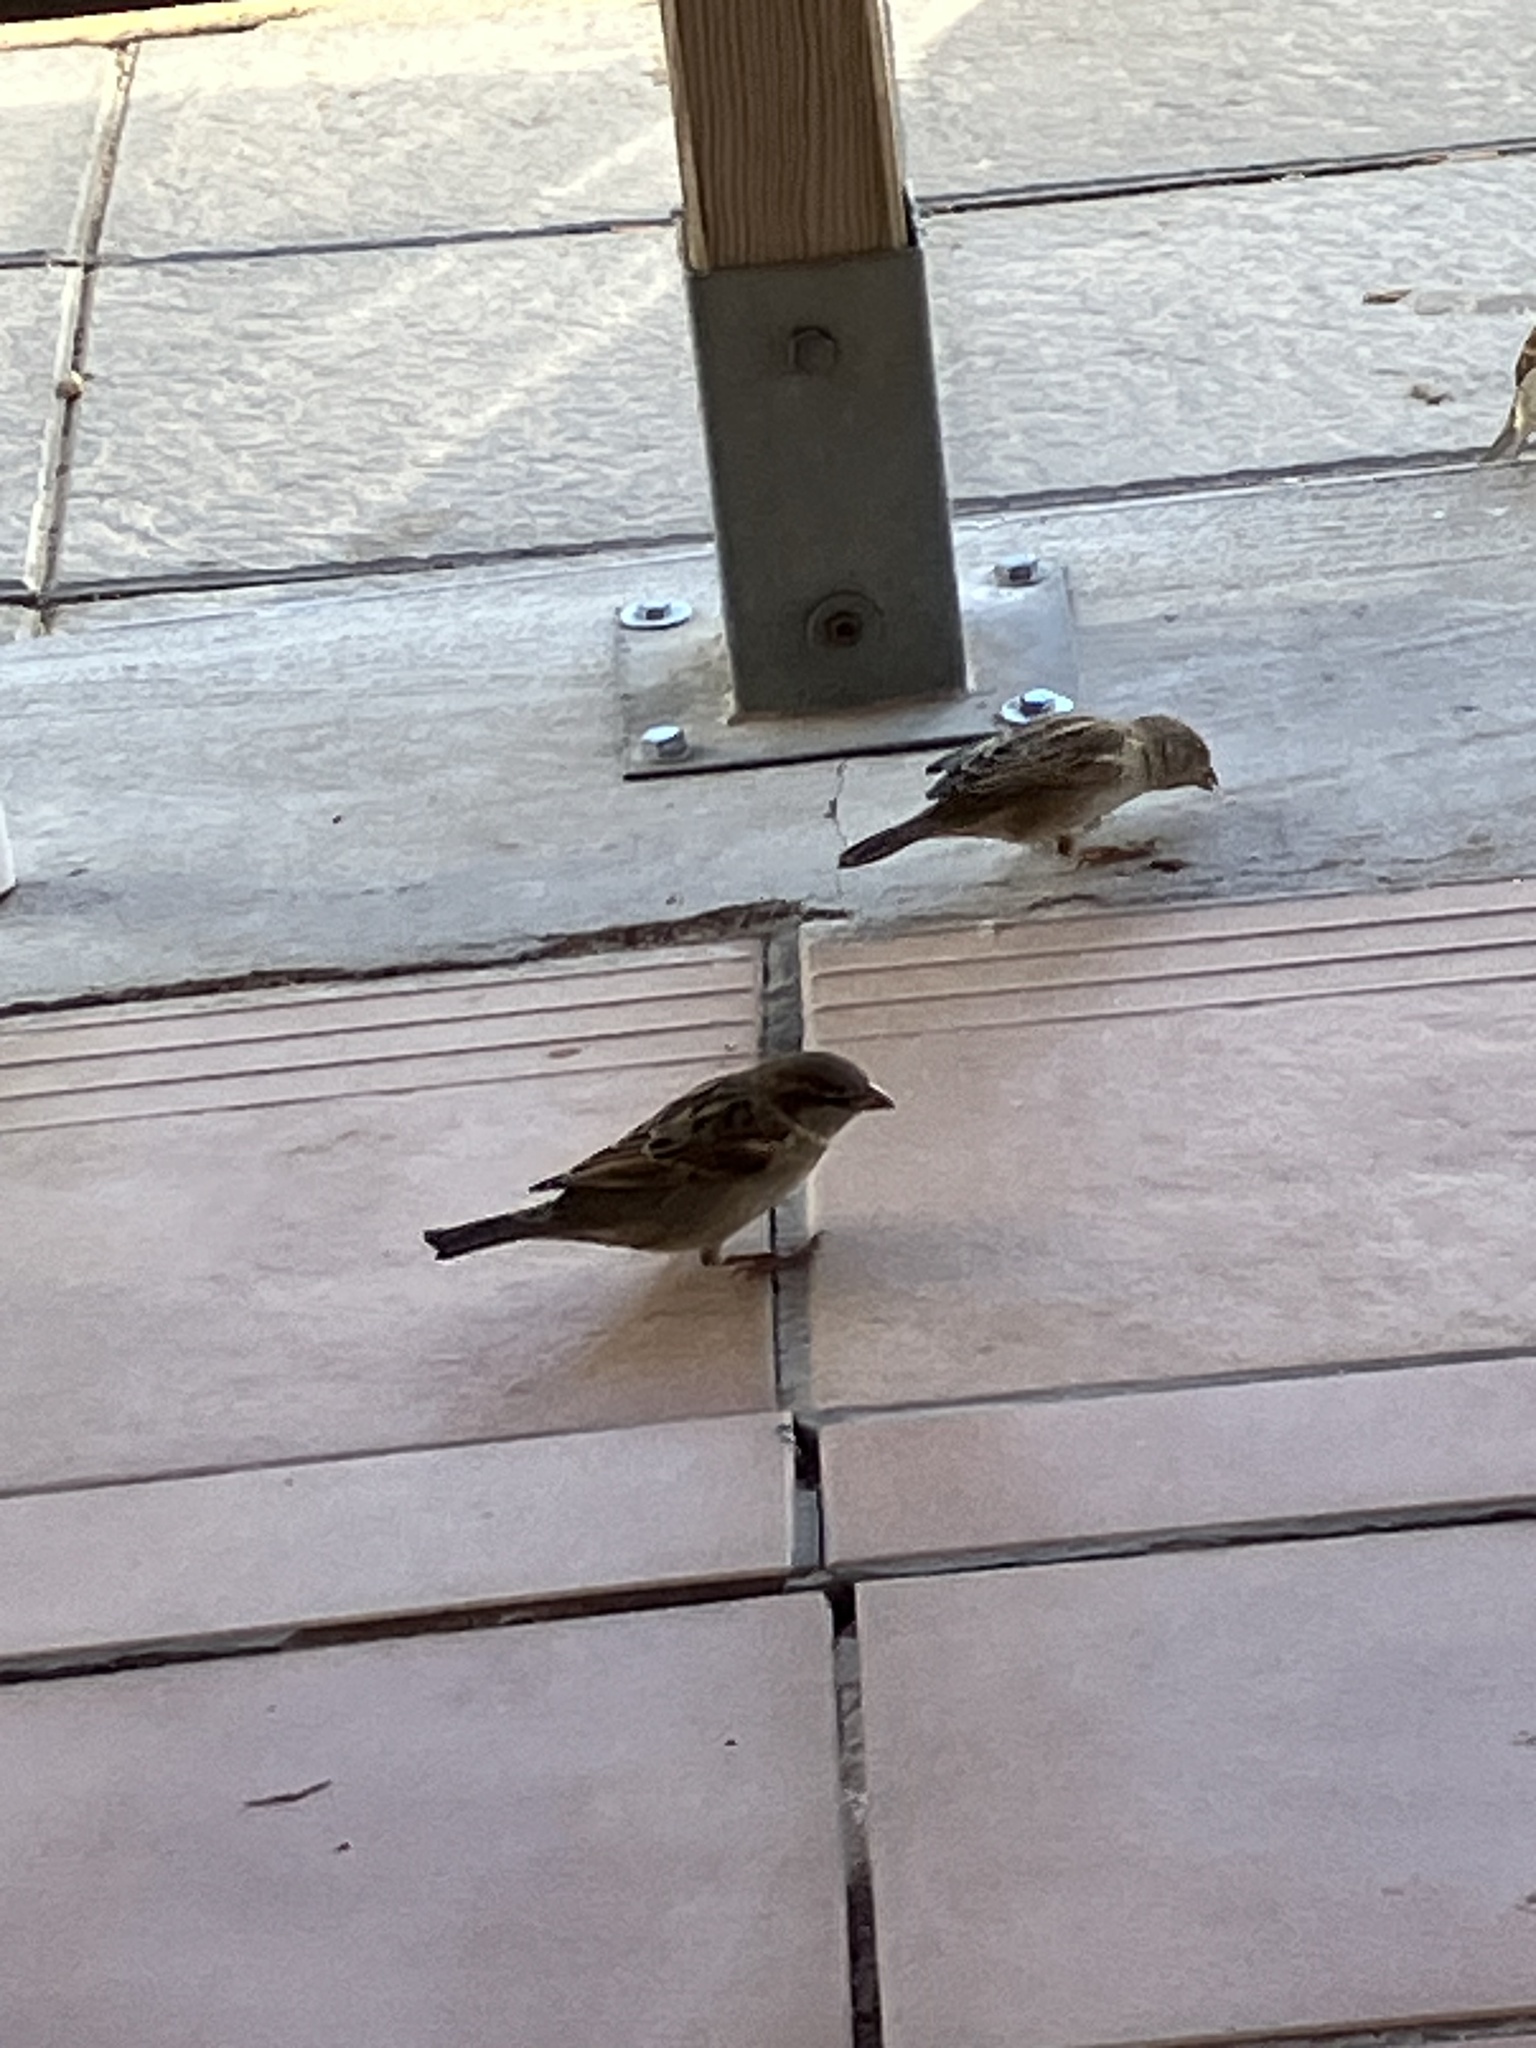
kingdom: Animalia
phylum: Chordata
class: Aves
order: Passeriformes
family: Passeridae
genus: Passer
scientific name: Passer domesticus
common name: House sparrow
